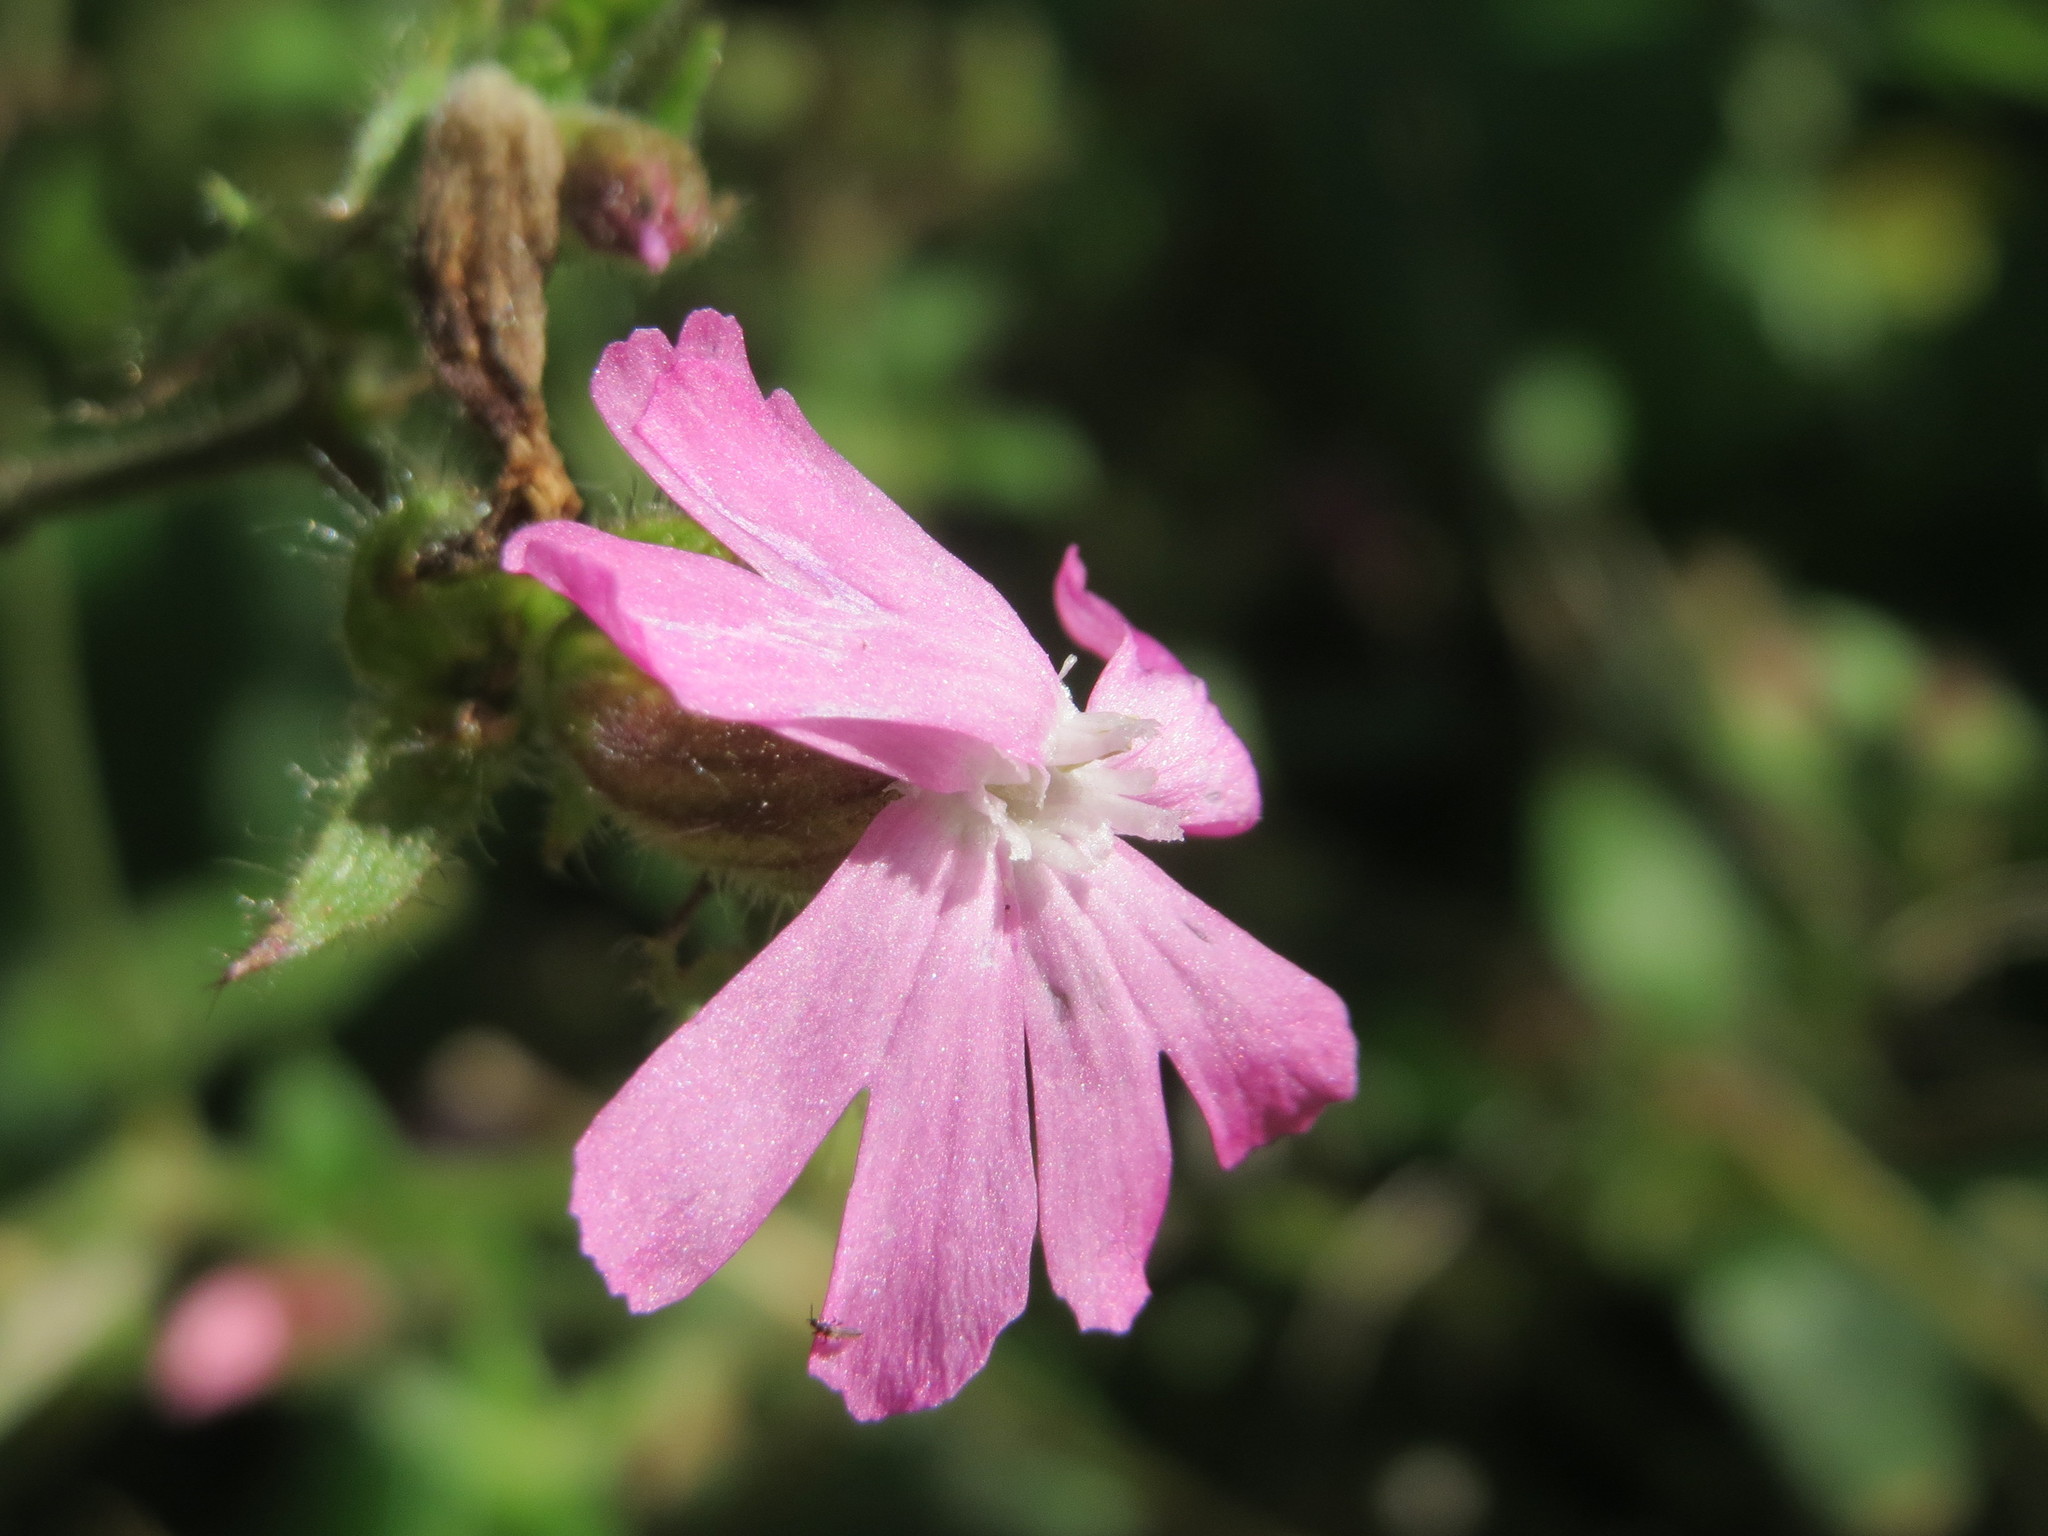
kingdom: Plantae
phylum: Tracheophyta
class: Magnoliopsida
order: Caryophyllales
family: Caryophyllaceae
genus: Silene
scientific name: Silene dioica
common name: Red campion
